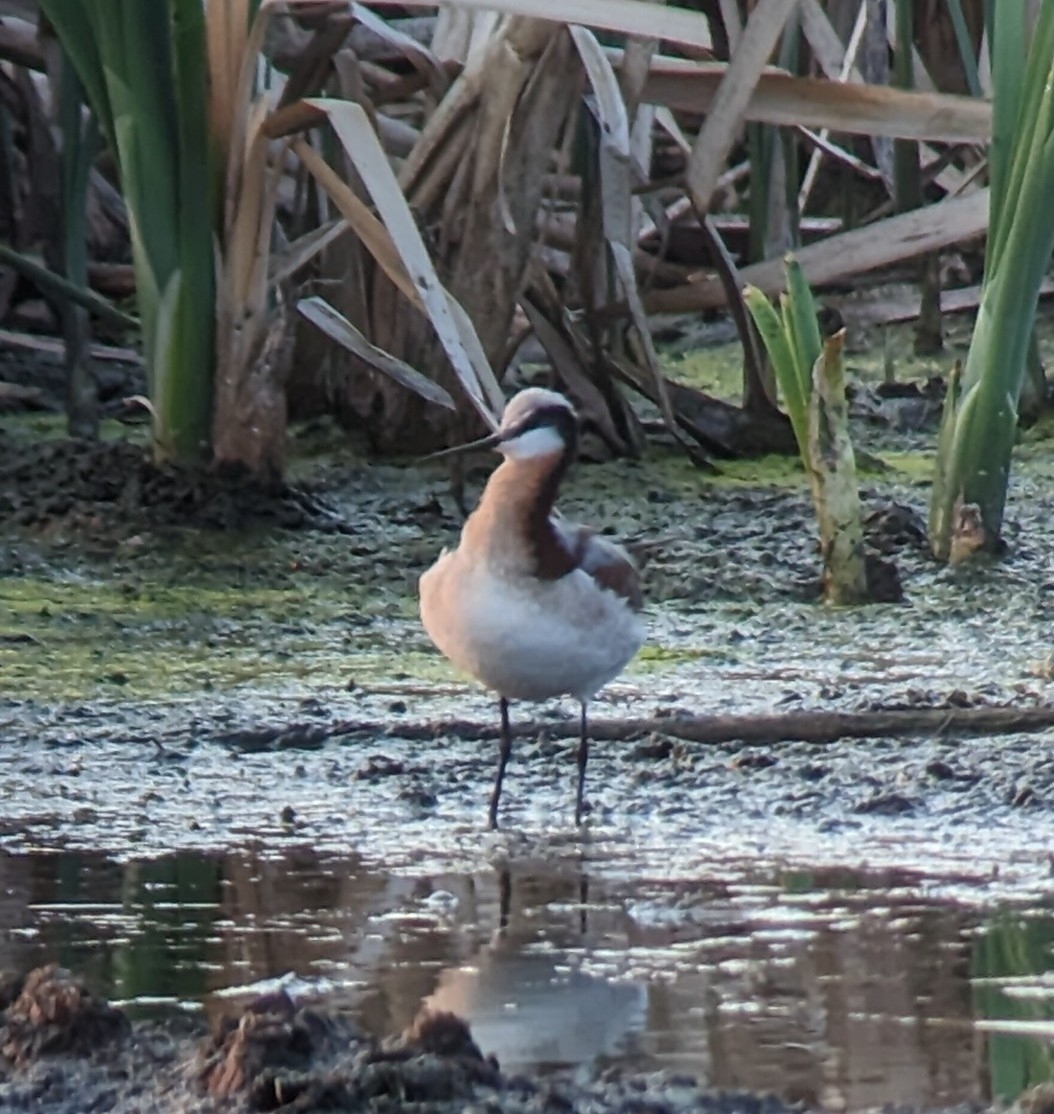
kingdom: Animalia
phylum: Chordata
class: Aves
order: Charadriiformes
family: Scolopacidae
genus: Phalaropus
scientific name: Phalaropus tricolor
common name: Wilson's phalarope
